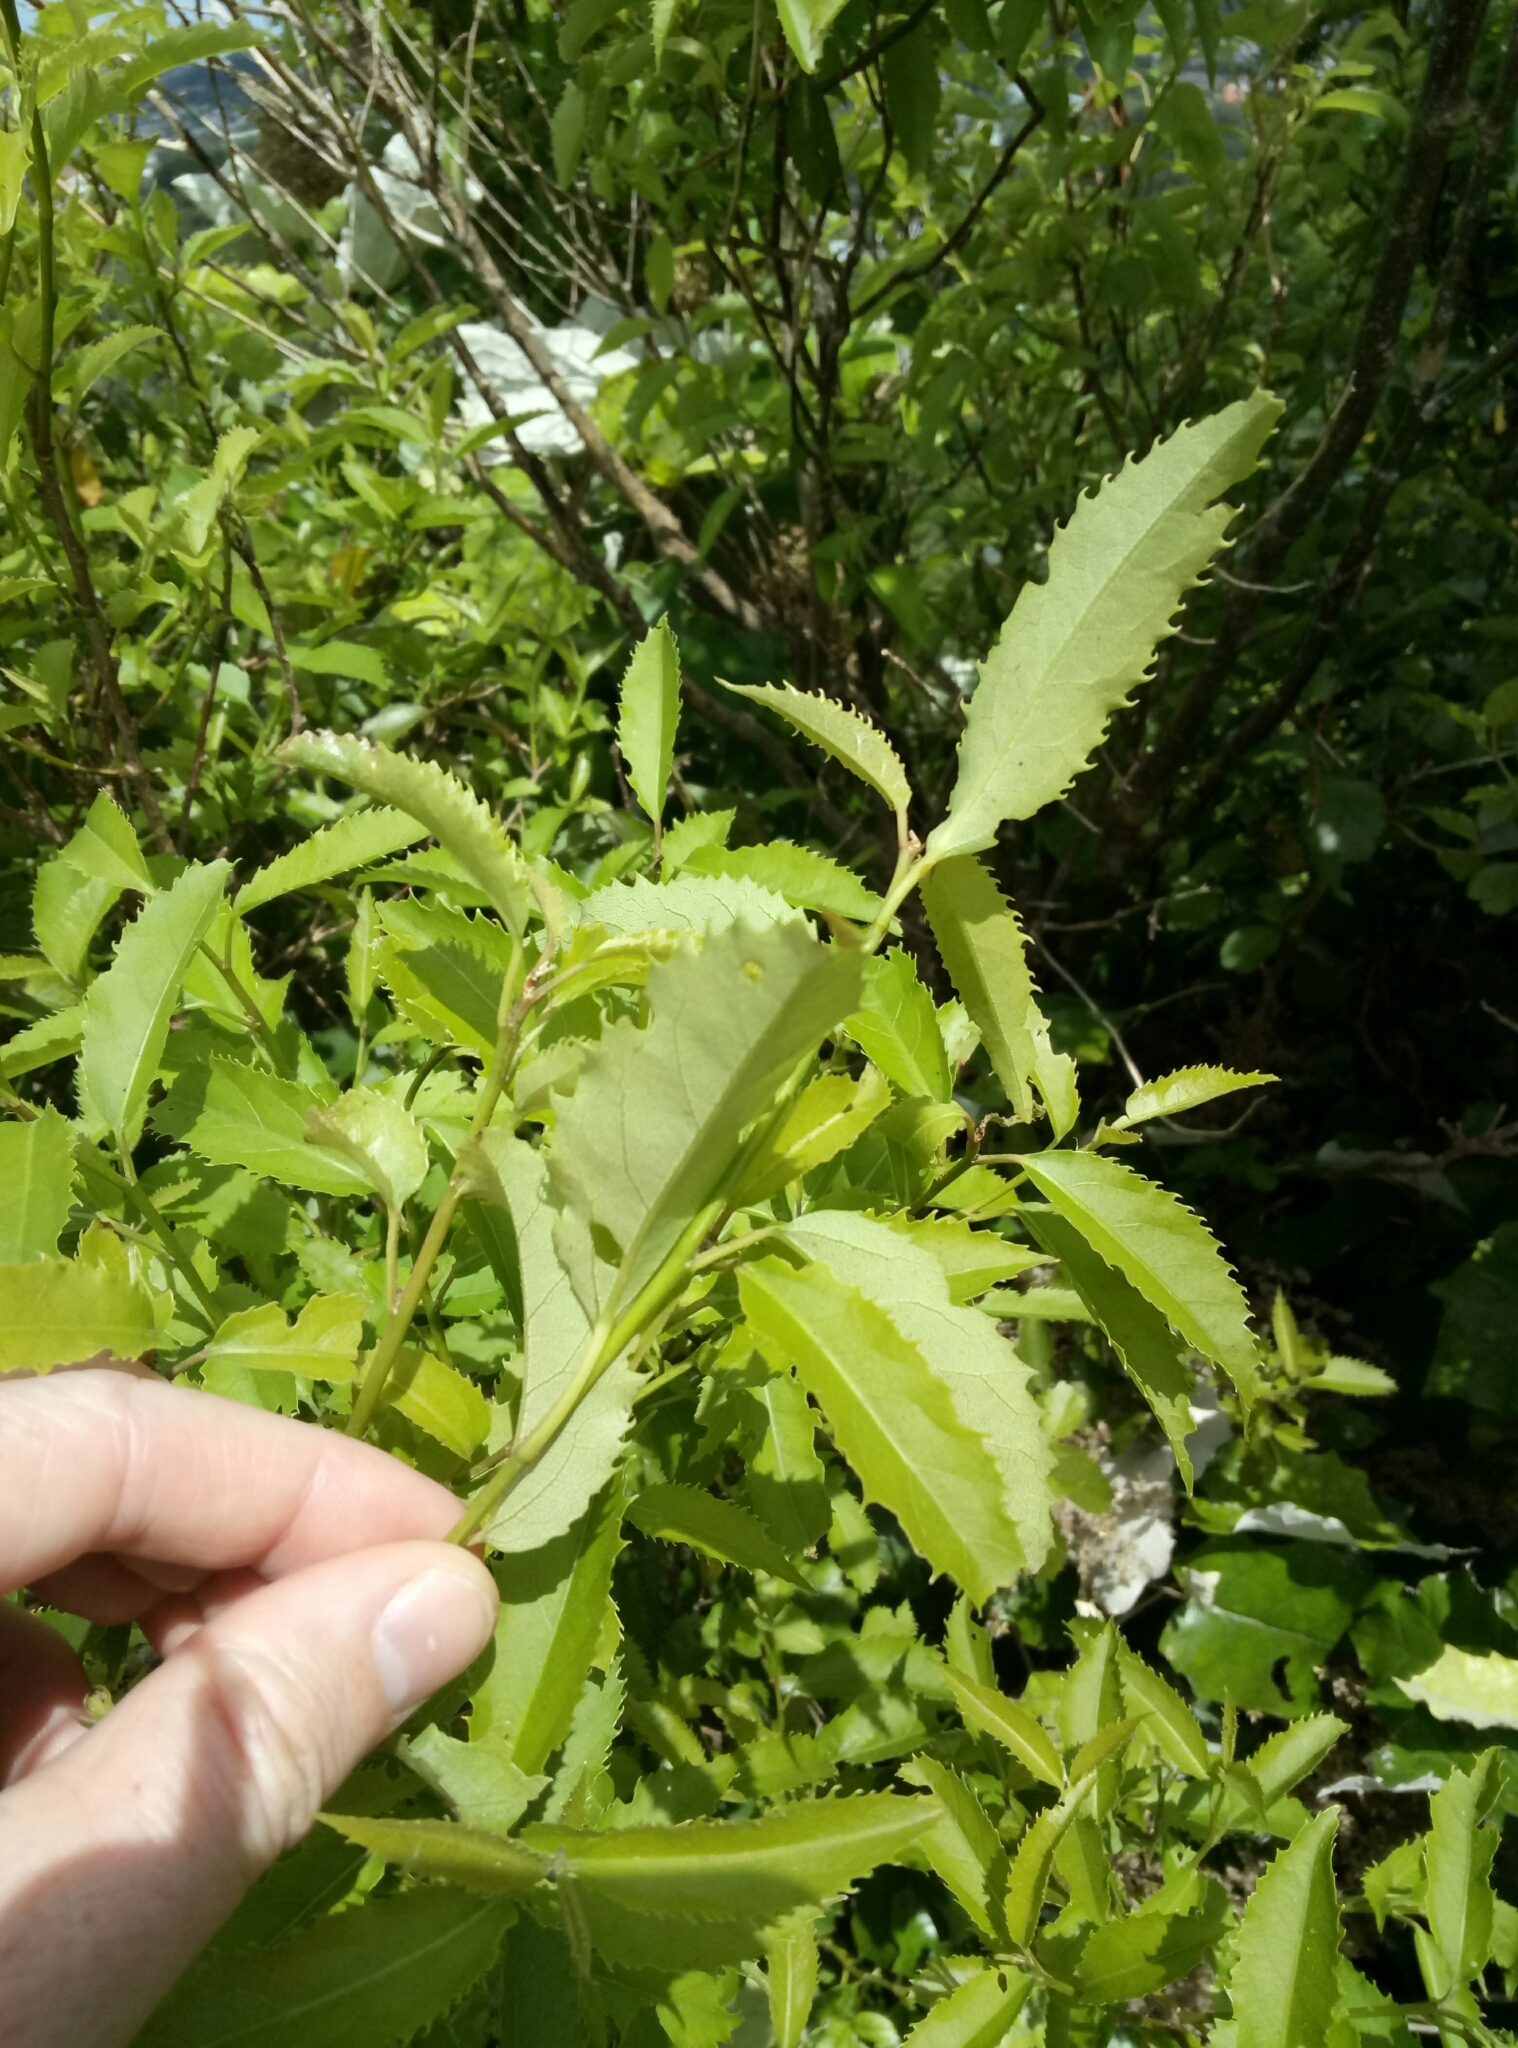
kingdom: Plantae
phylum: Tracheophyta
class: Magnoliopsida
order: Malvales
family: Malvaceae
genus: Hoheria
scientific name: Hoheria sexstylosa
